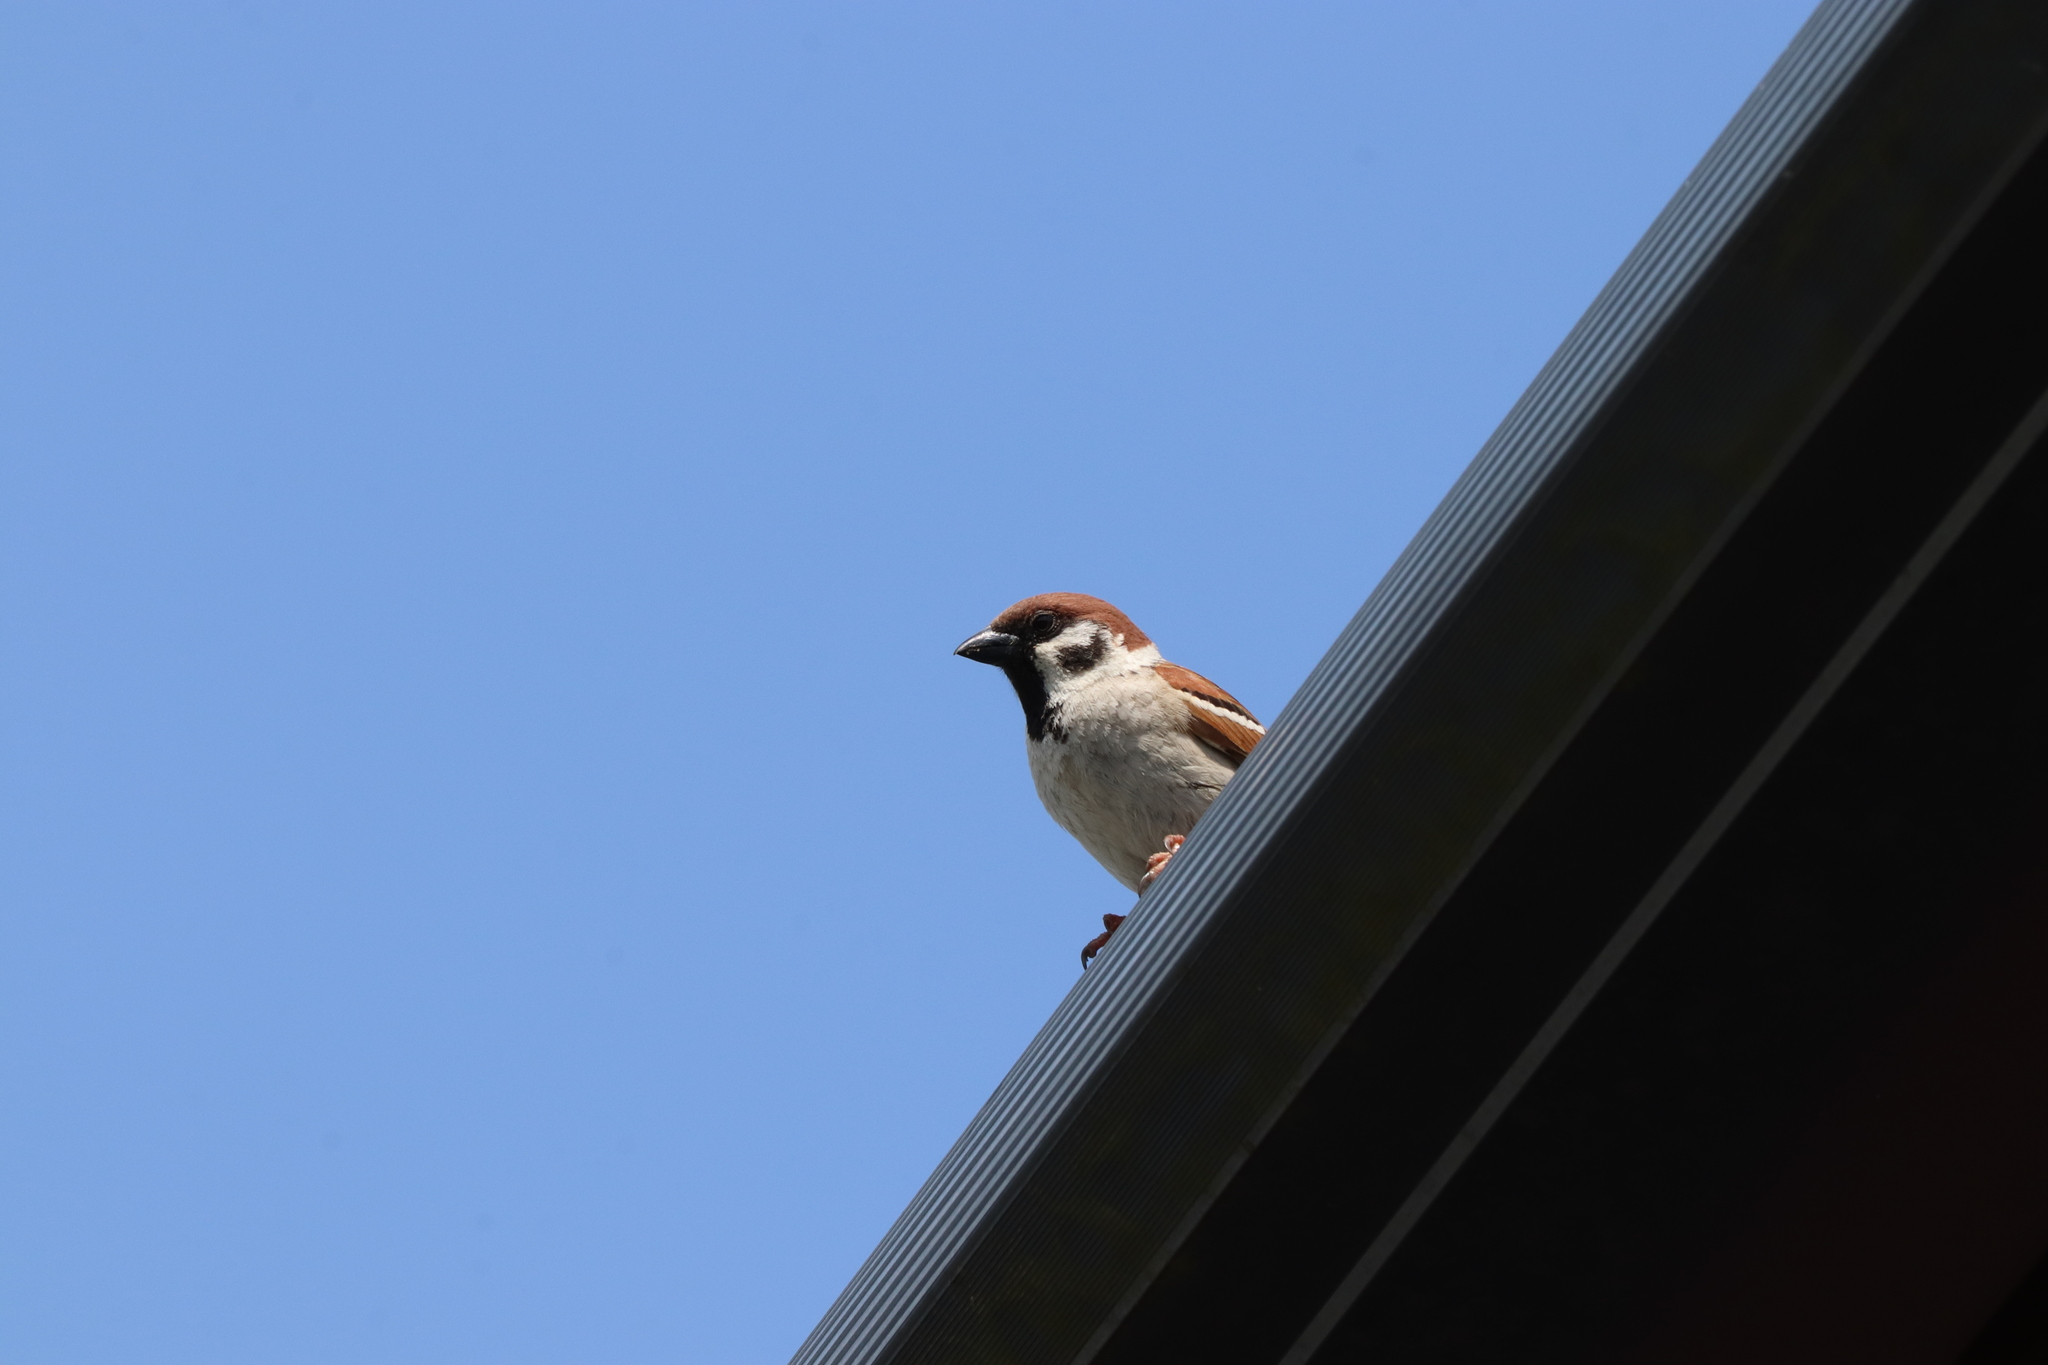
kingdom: Animalia
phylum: Chordata
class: Aves
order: Passeriformes
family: Passeridae
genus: Passer
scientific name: Passer montanus
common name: Eurasian tree sparrow
